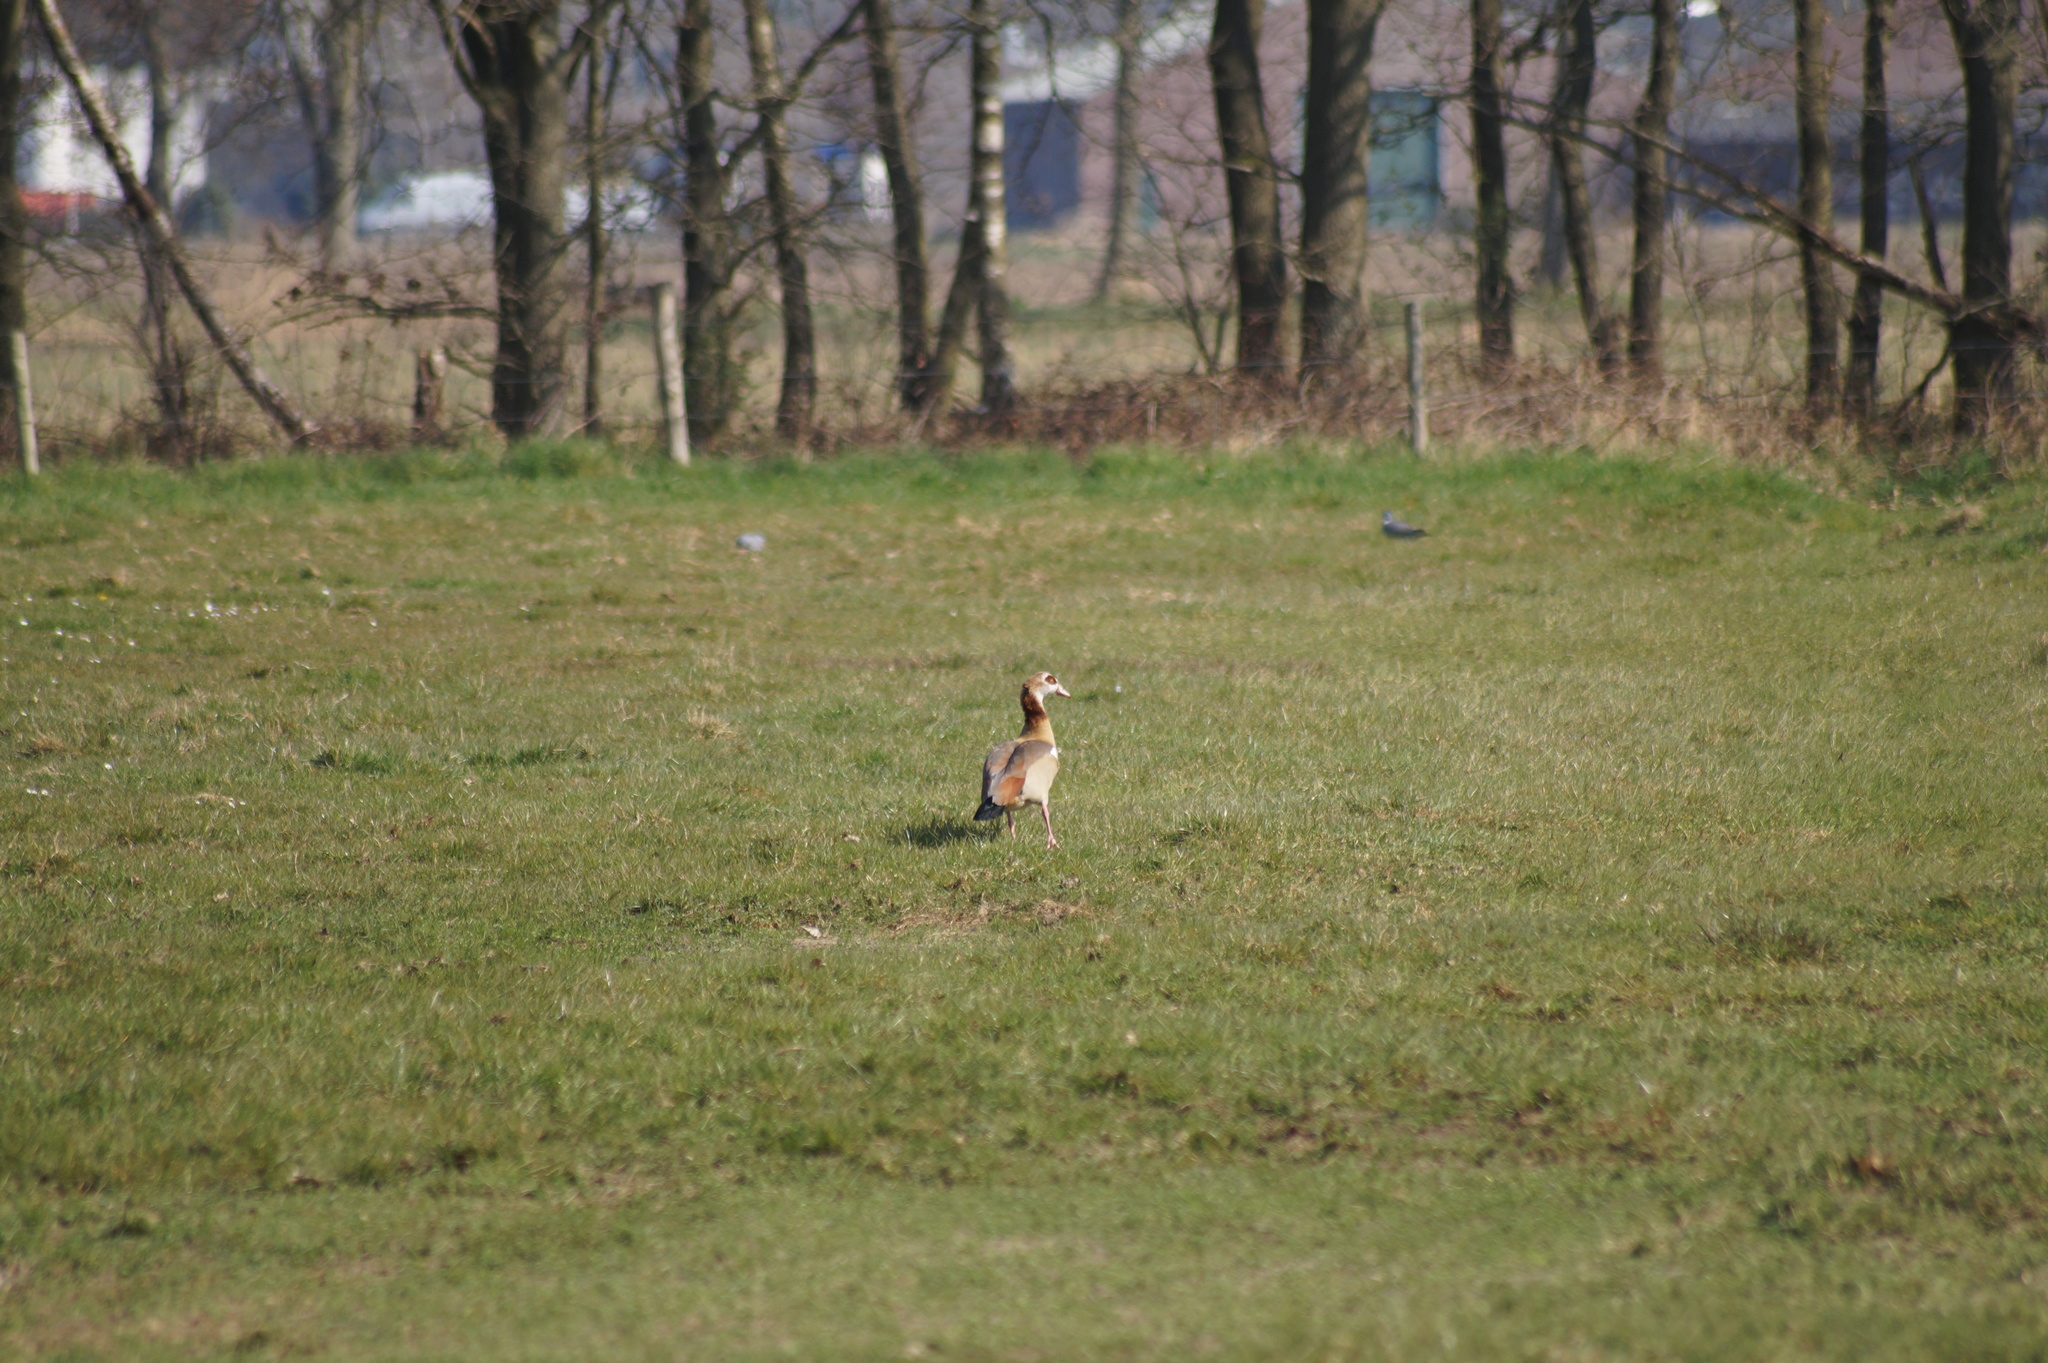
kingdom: Animalia
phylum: Chordata
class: Aves
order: Anseriformes
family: Anatidae
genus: Alopochen
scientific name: Alopochen aegyptiaca
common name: Egyptian goose
